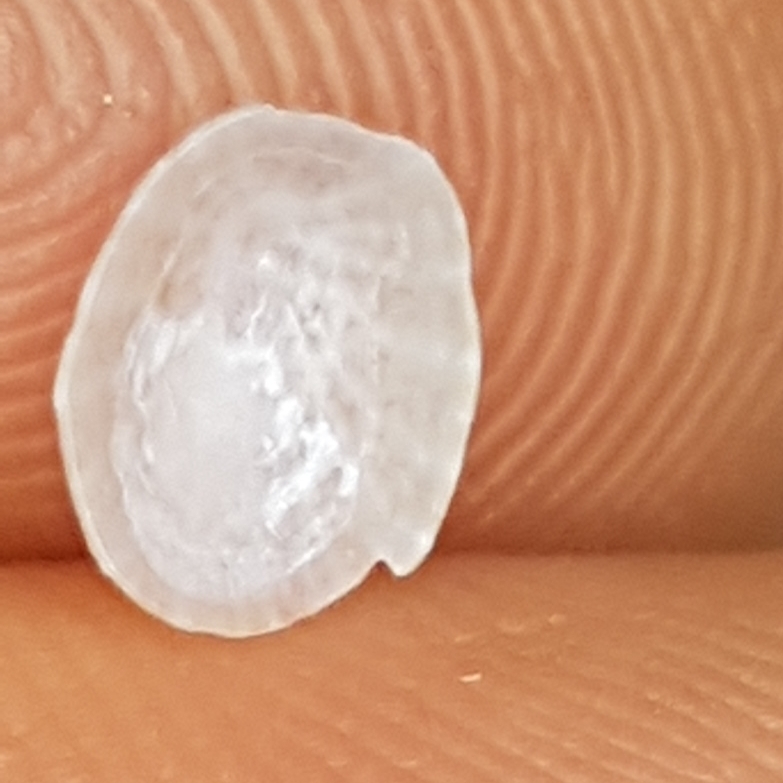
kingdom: Animalia
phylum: Mollusca
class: Gastropoda
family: Lottiidae
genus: Tectura
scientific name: Tectura virginea
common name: White tortoiseshell limpet
